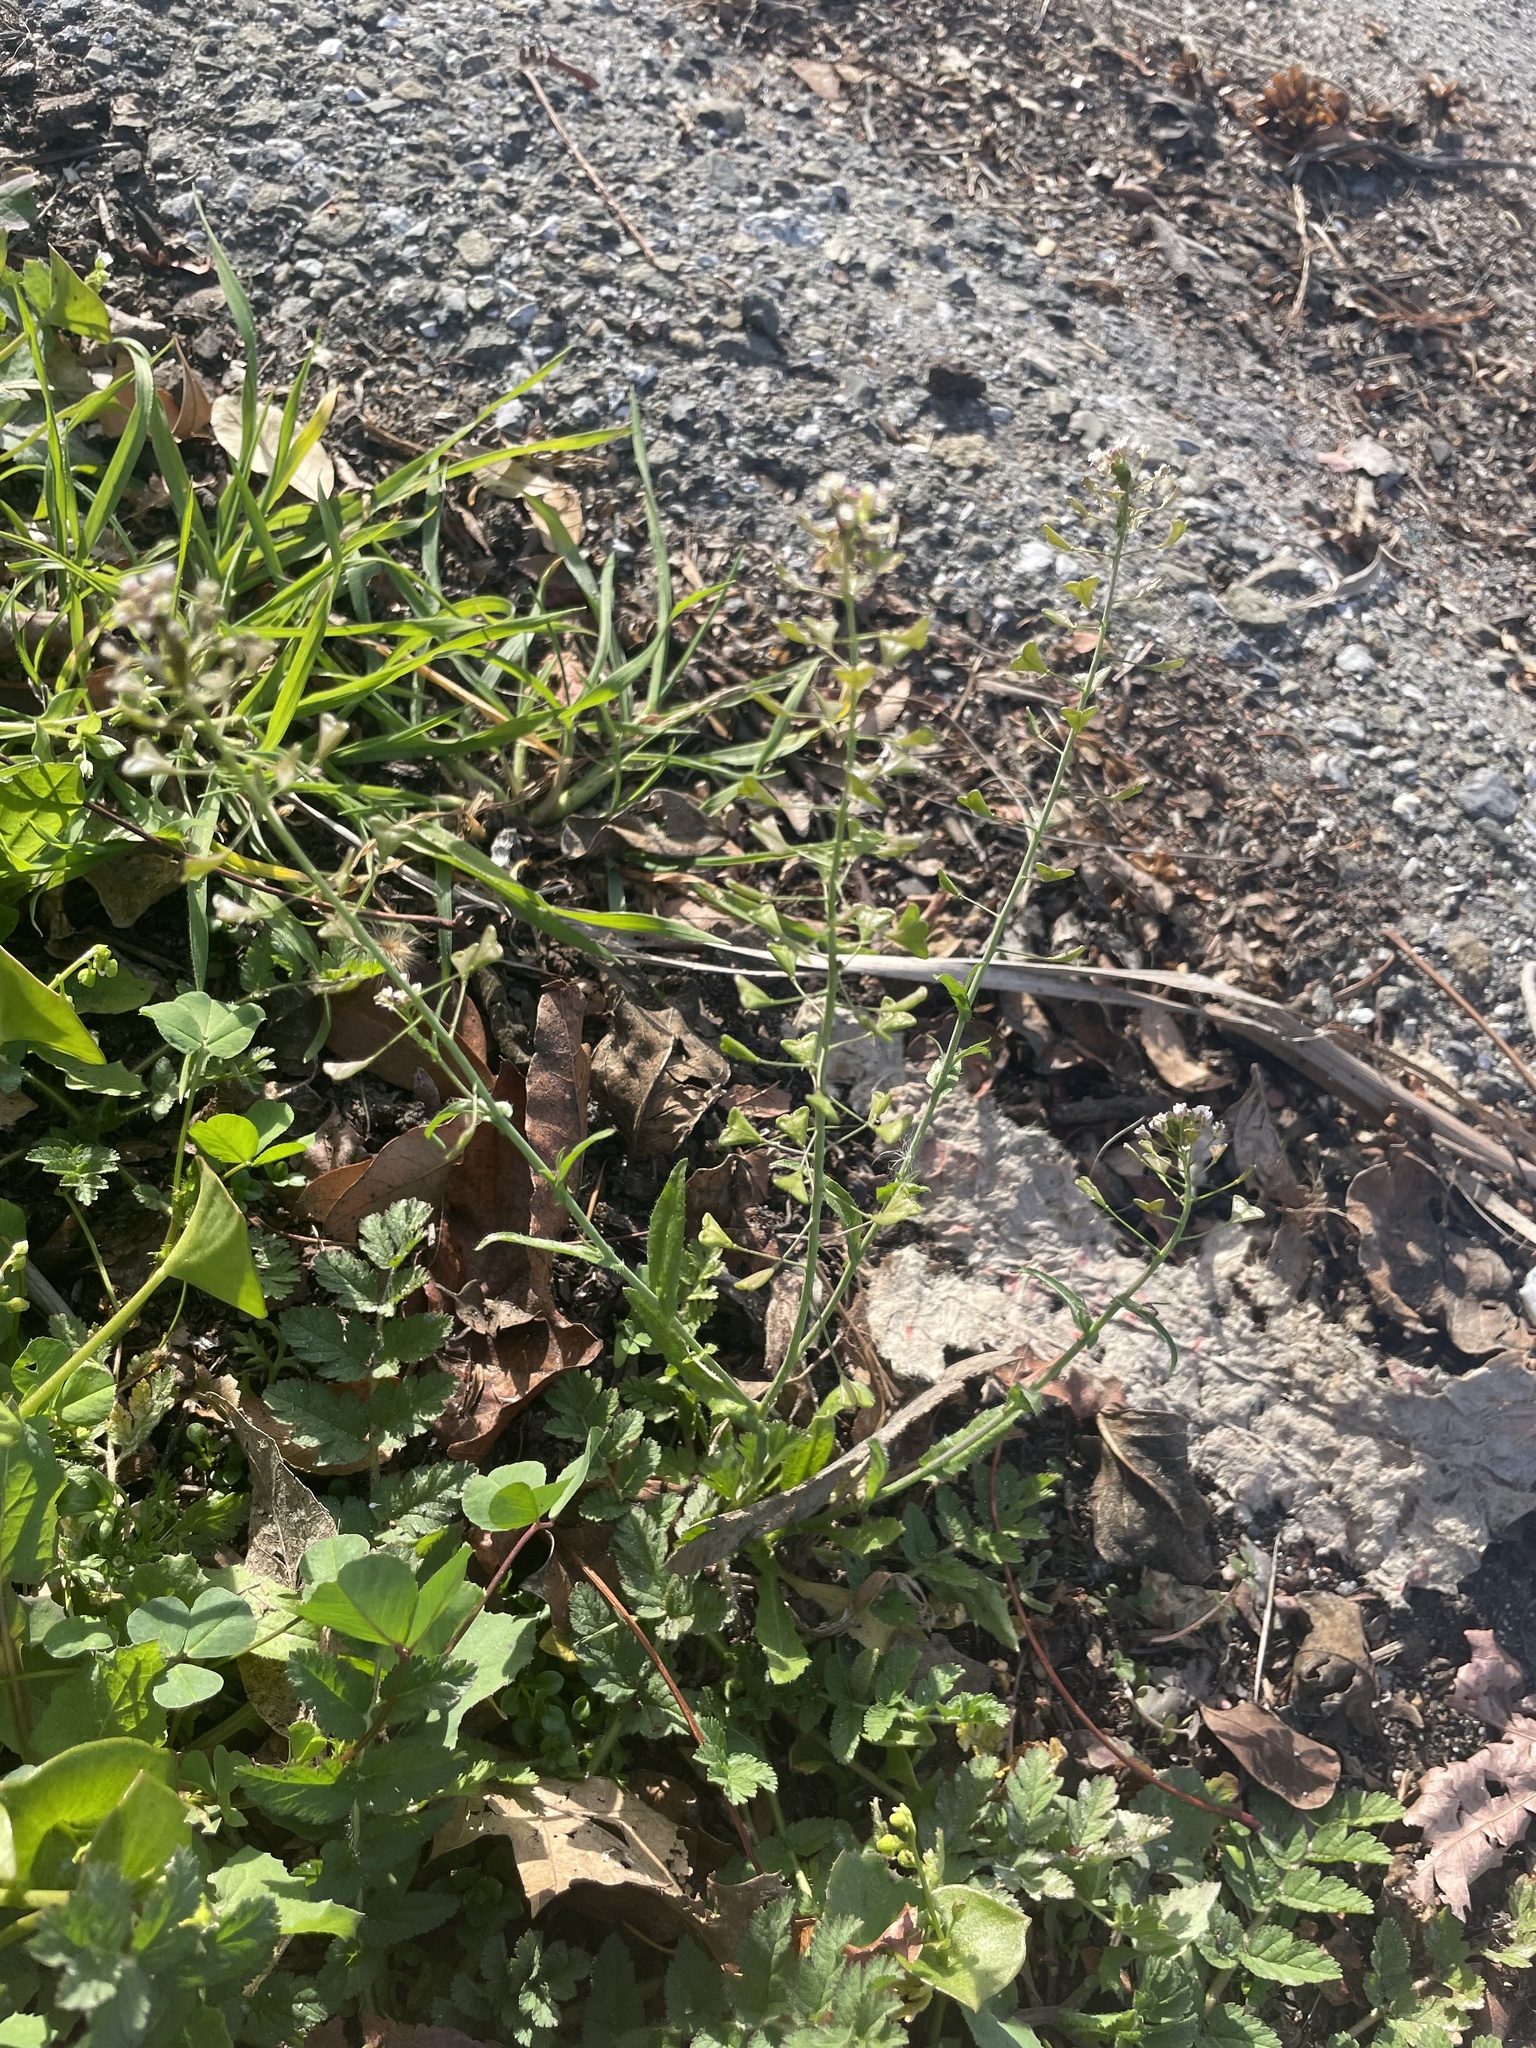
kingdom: Plantae
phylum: Tracheophyta
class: Magnoliopsida
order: Brassicales
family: Brassicaceae
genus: Capsella
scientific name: Capsella bursa-pastoris
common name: Shepherd's purse
